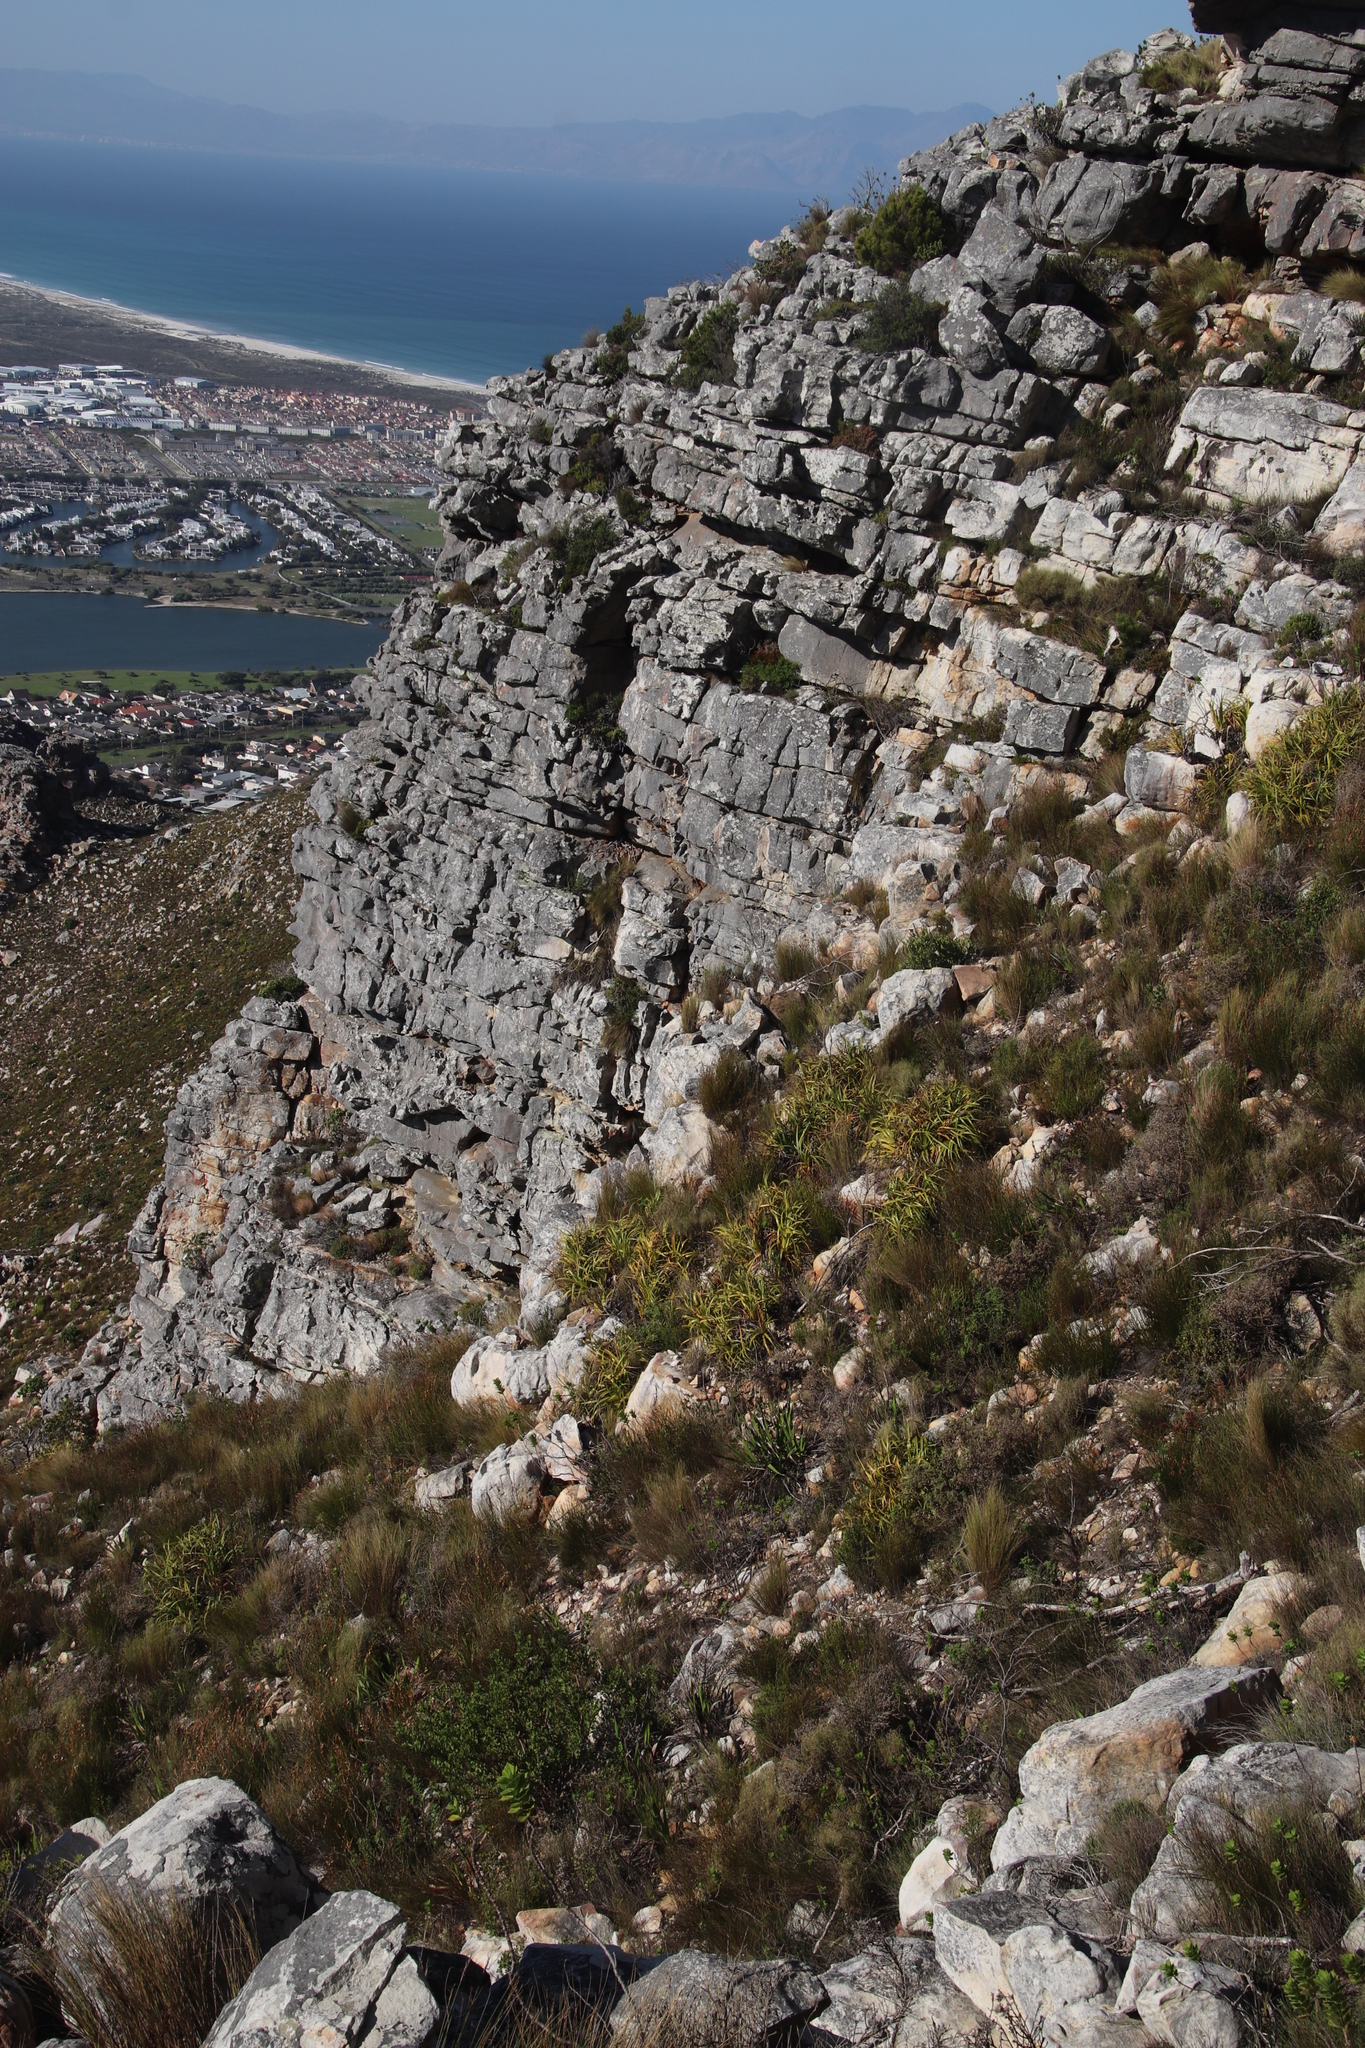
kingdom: Plantae
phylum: Tracheophyta
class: Liliopsida
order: Poales
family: Cyperaceae
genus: Tetraria
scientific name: Tetraria thermalis
